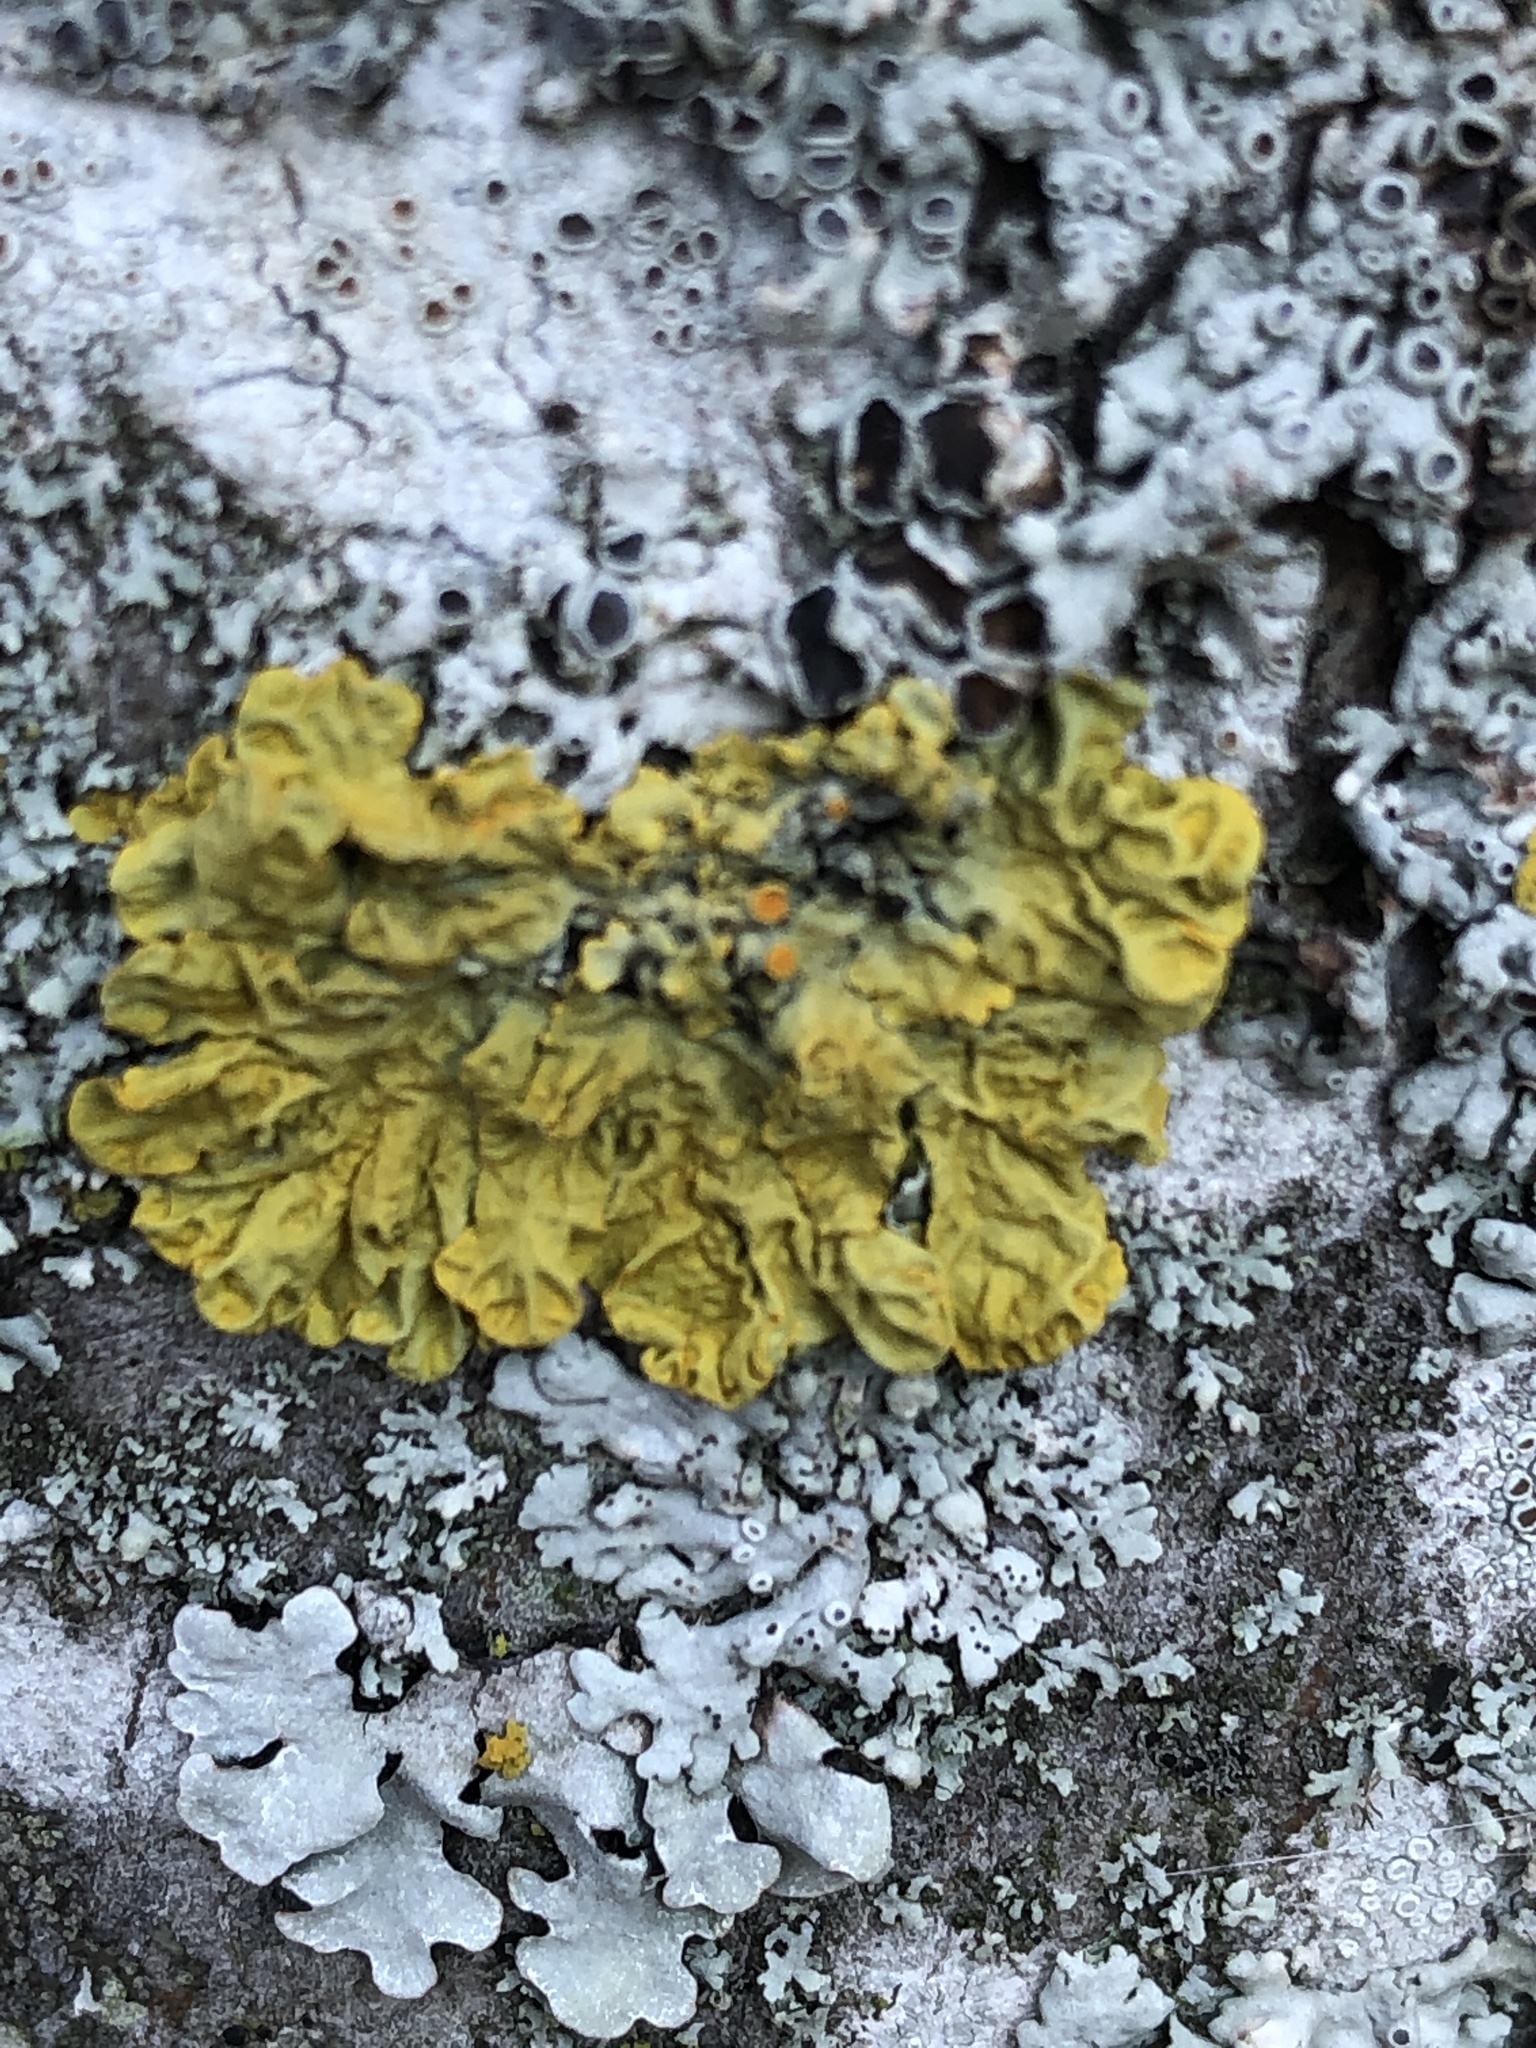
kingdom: Fungi
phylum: Ascomycota
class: Lecanoromycetes
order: Teloschistales
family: Teloschistaceae
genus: Xanthoria
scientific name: Xanthoria parietina
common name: Common orange lichen
